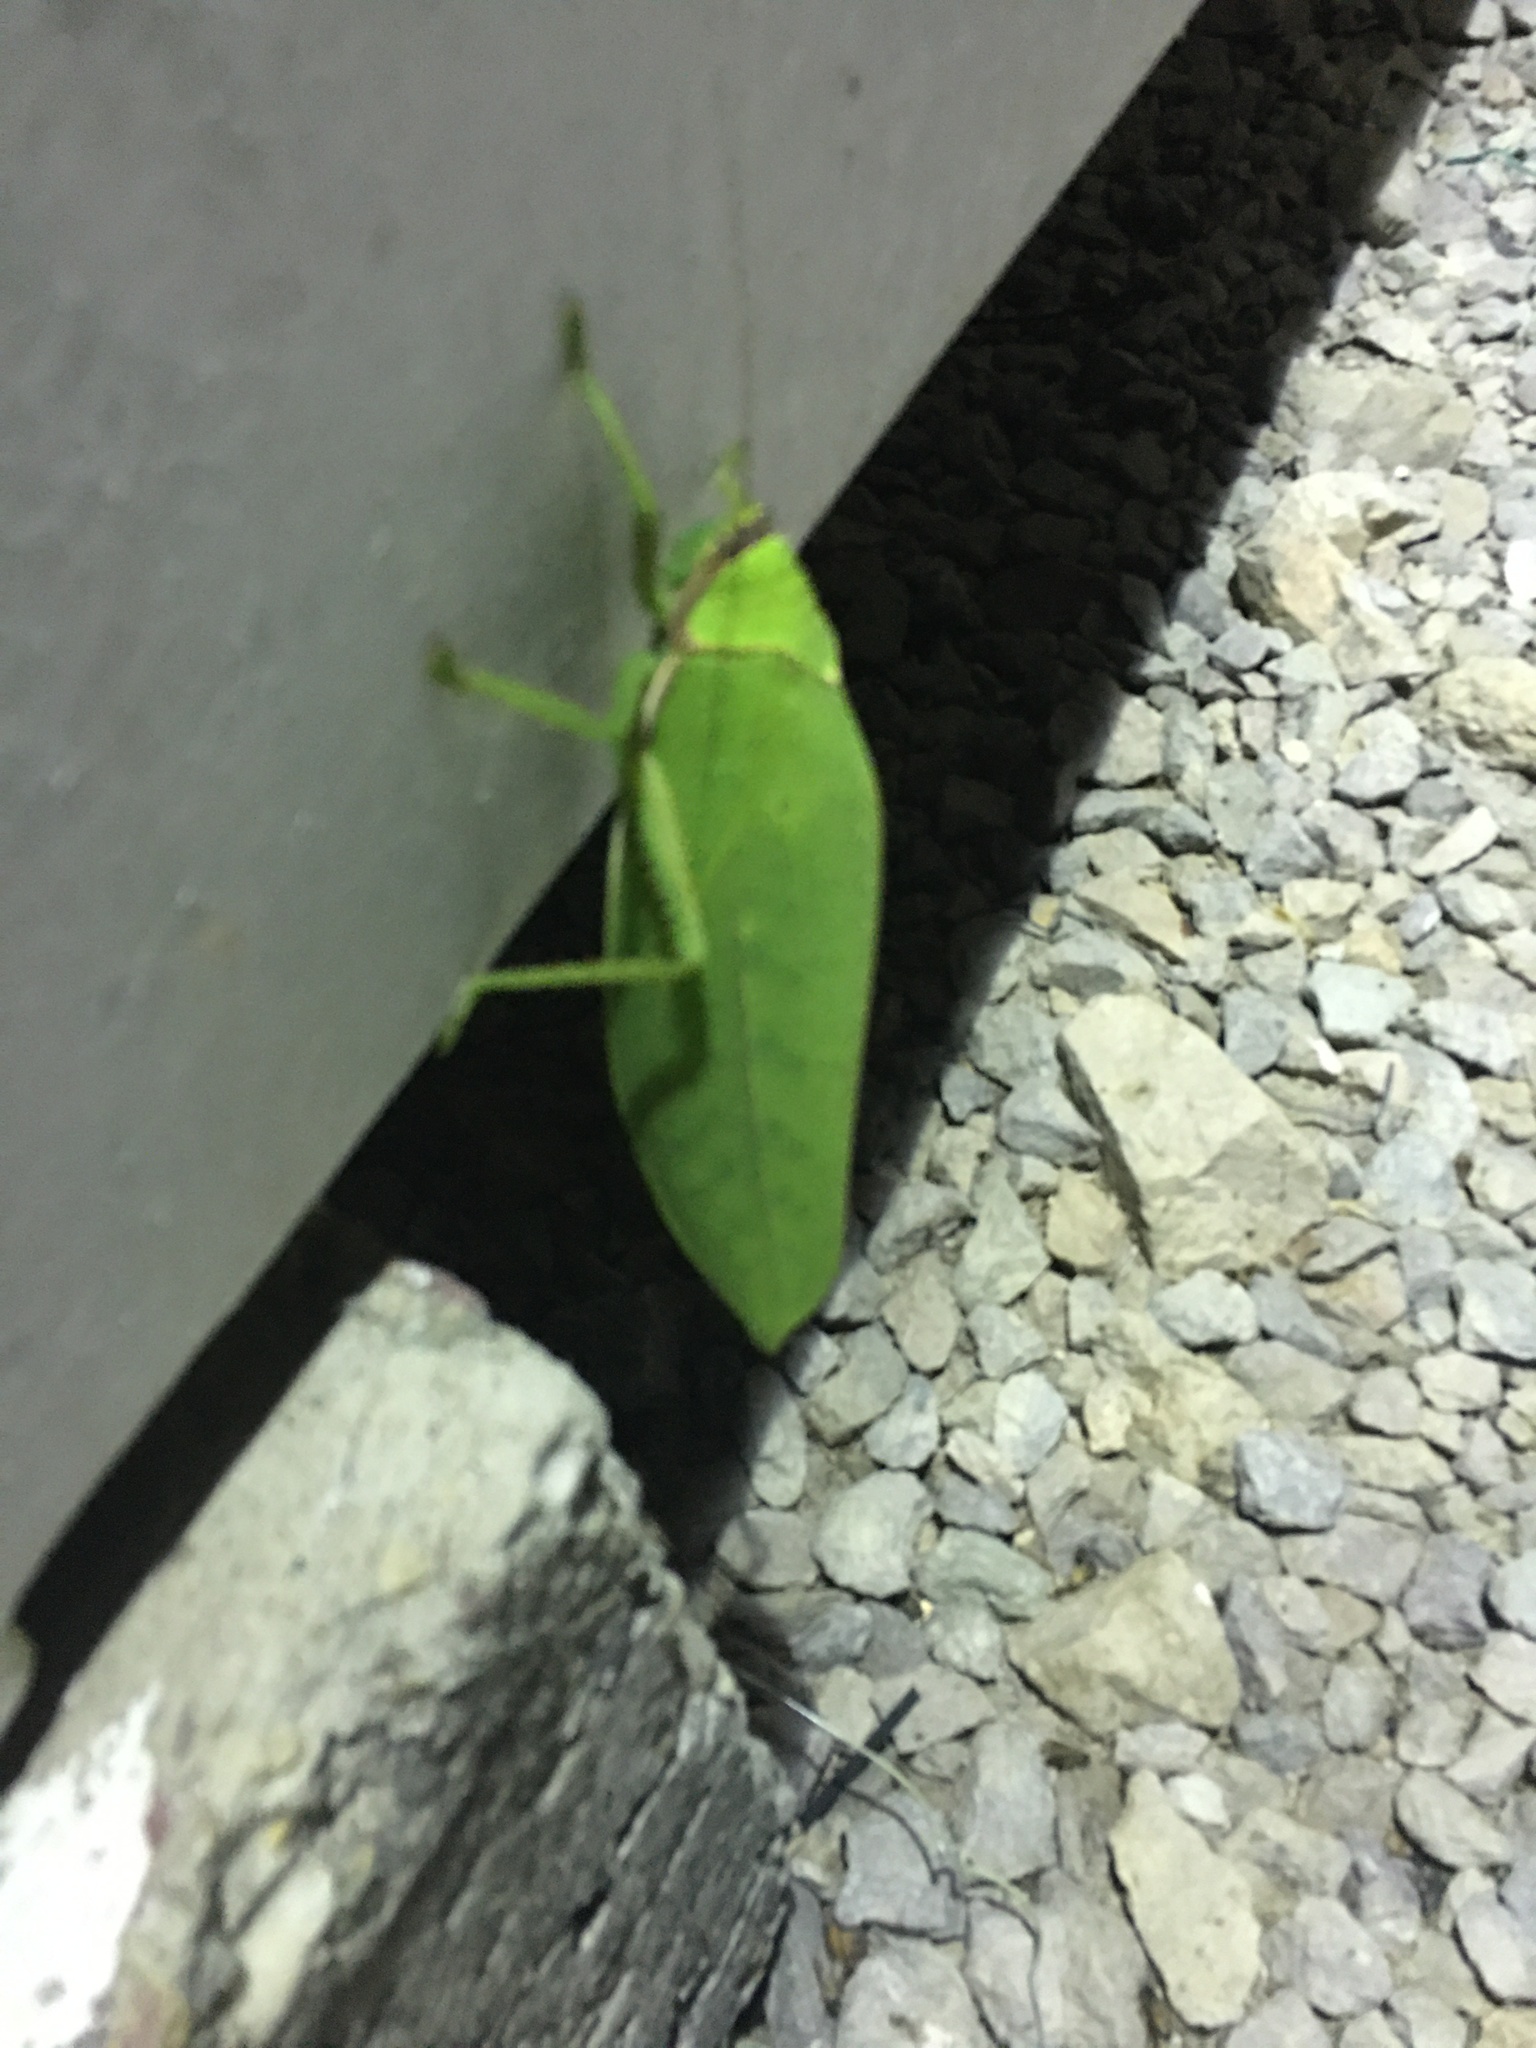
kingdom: Animalia
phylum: Arthropoda
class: Insecta
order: Orthoptera
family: Tettigoniidae
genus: Pseudophyllus
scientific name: Pseudophyllus titan
